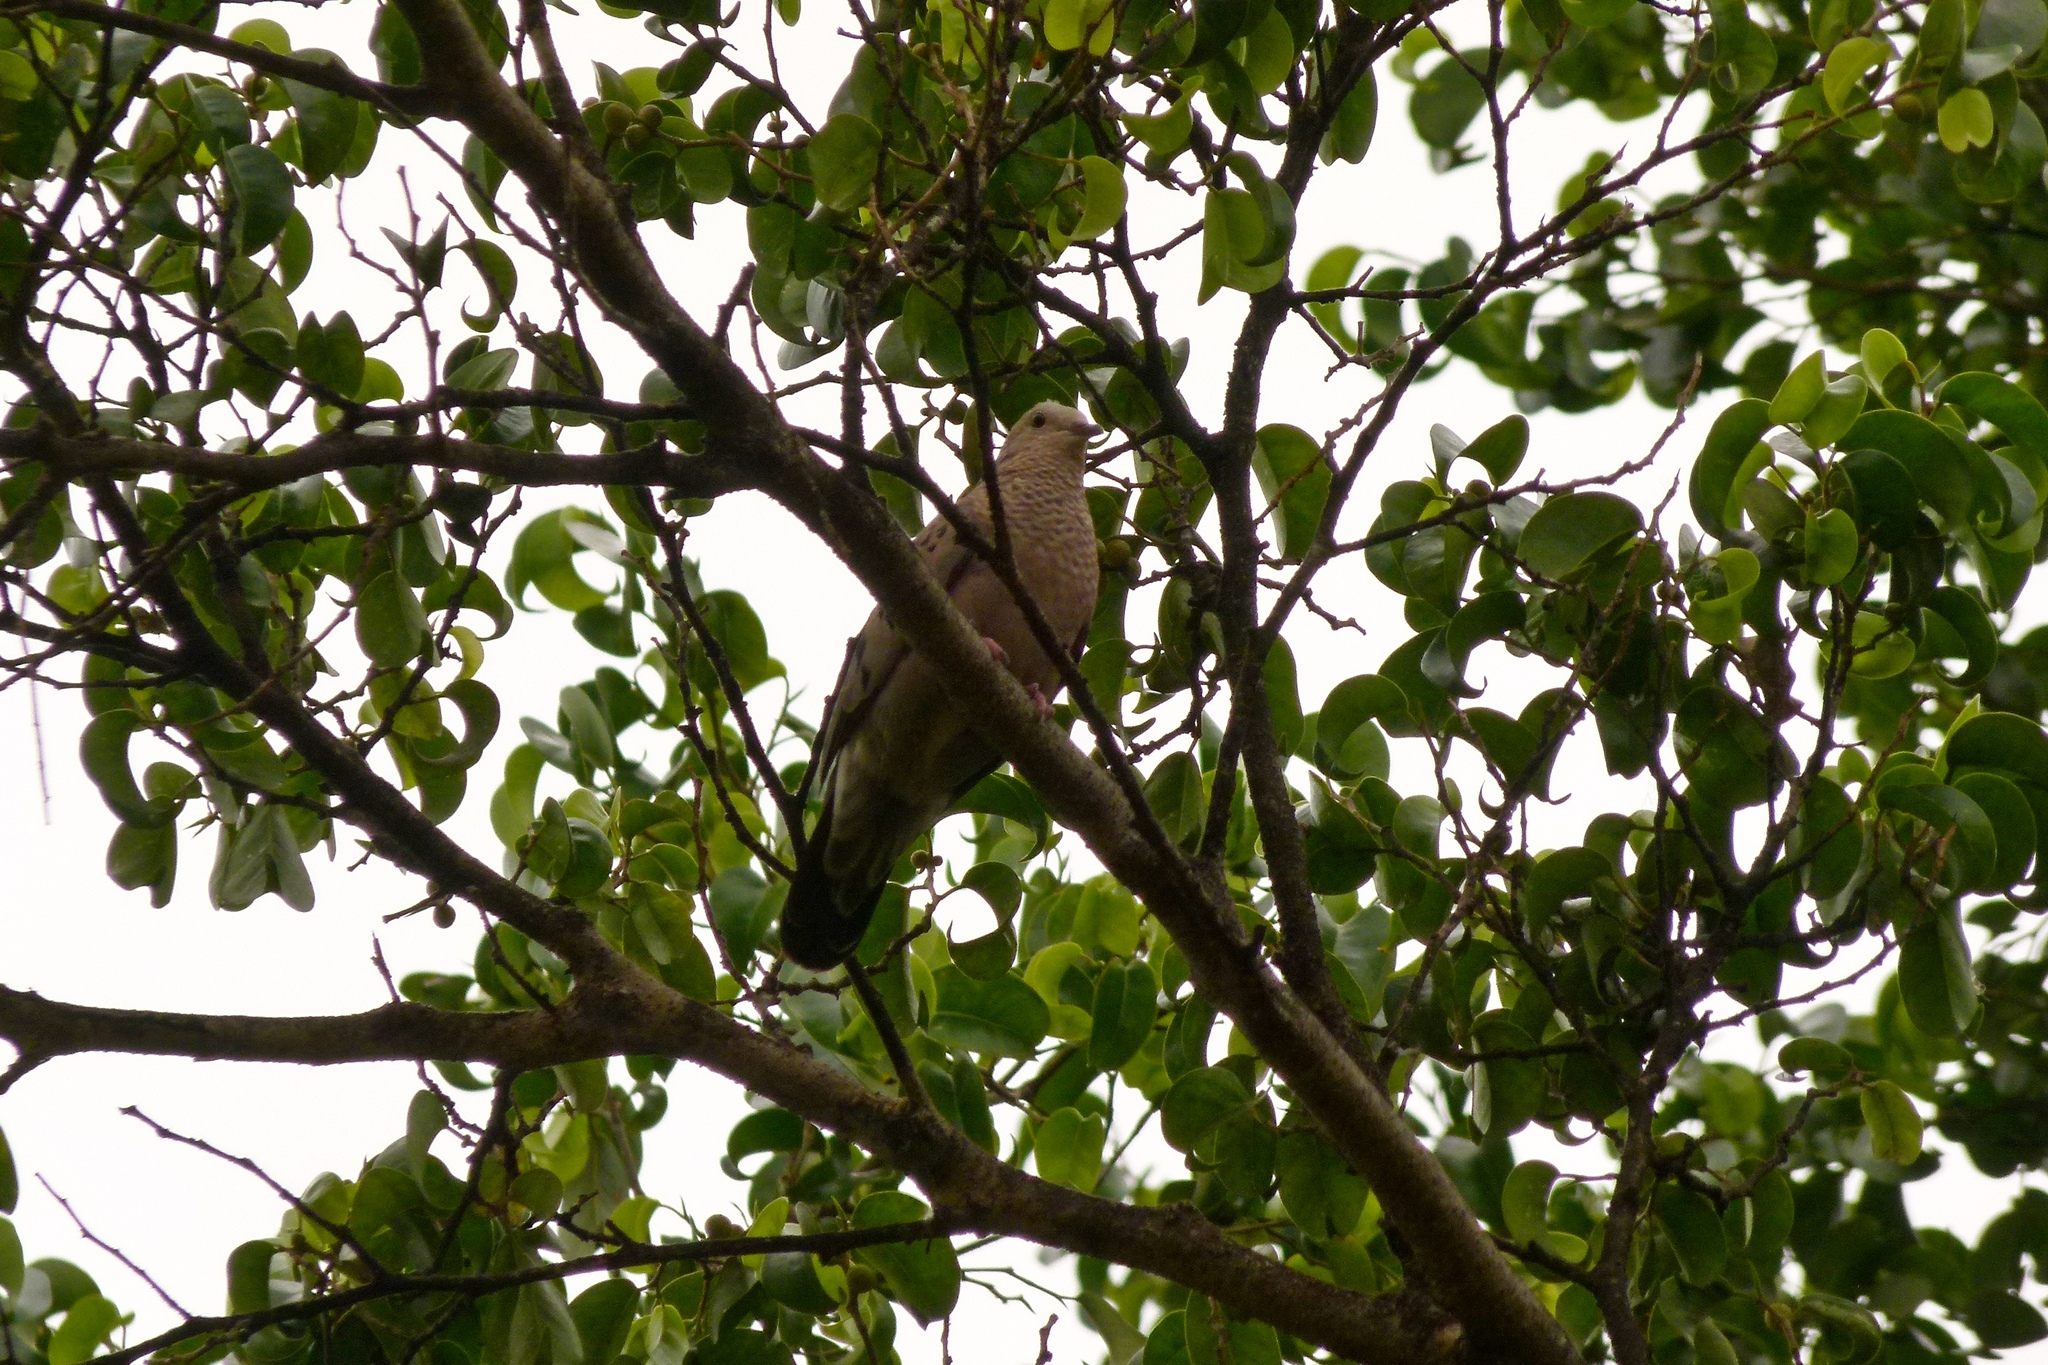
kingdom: Animalia
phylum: Chordata
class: Aves
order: Columbiformes
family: Columbidae
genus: Columbina
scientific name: Columbina passerina
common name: Common ground-dove
